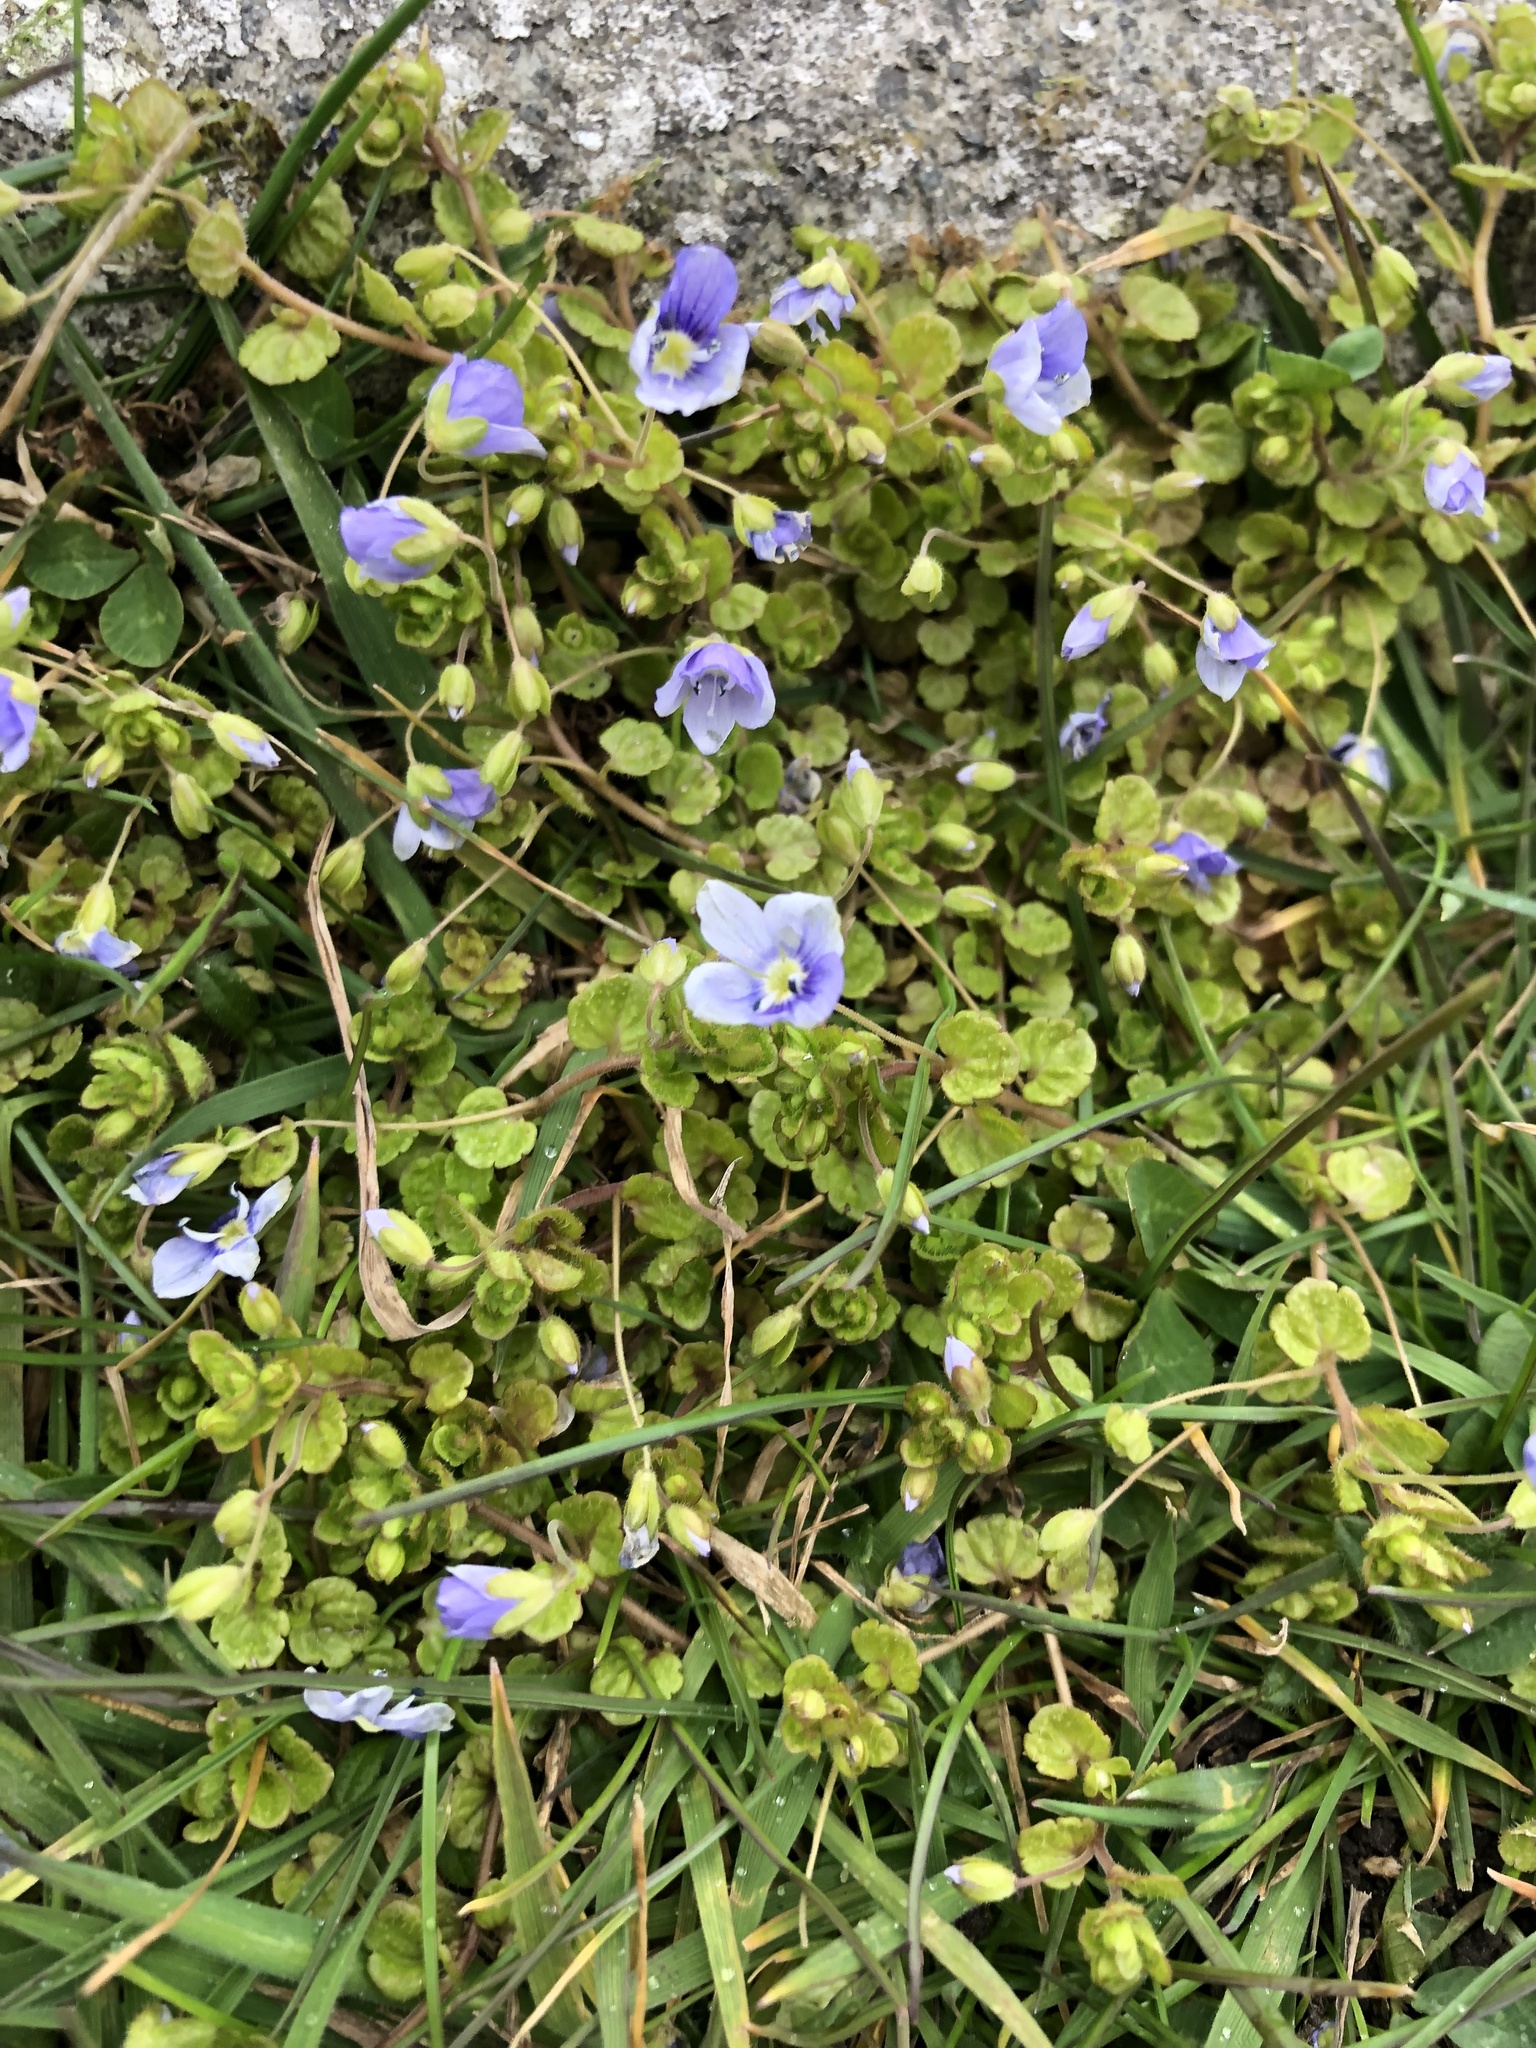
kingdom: Plantae
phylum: Tracheophyta
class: Magnoliopsida
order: Lamiales
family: Plantaginaceae
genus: Veronica
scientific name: Veronica filiformis
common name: Slender speedwell
